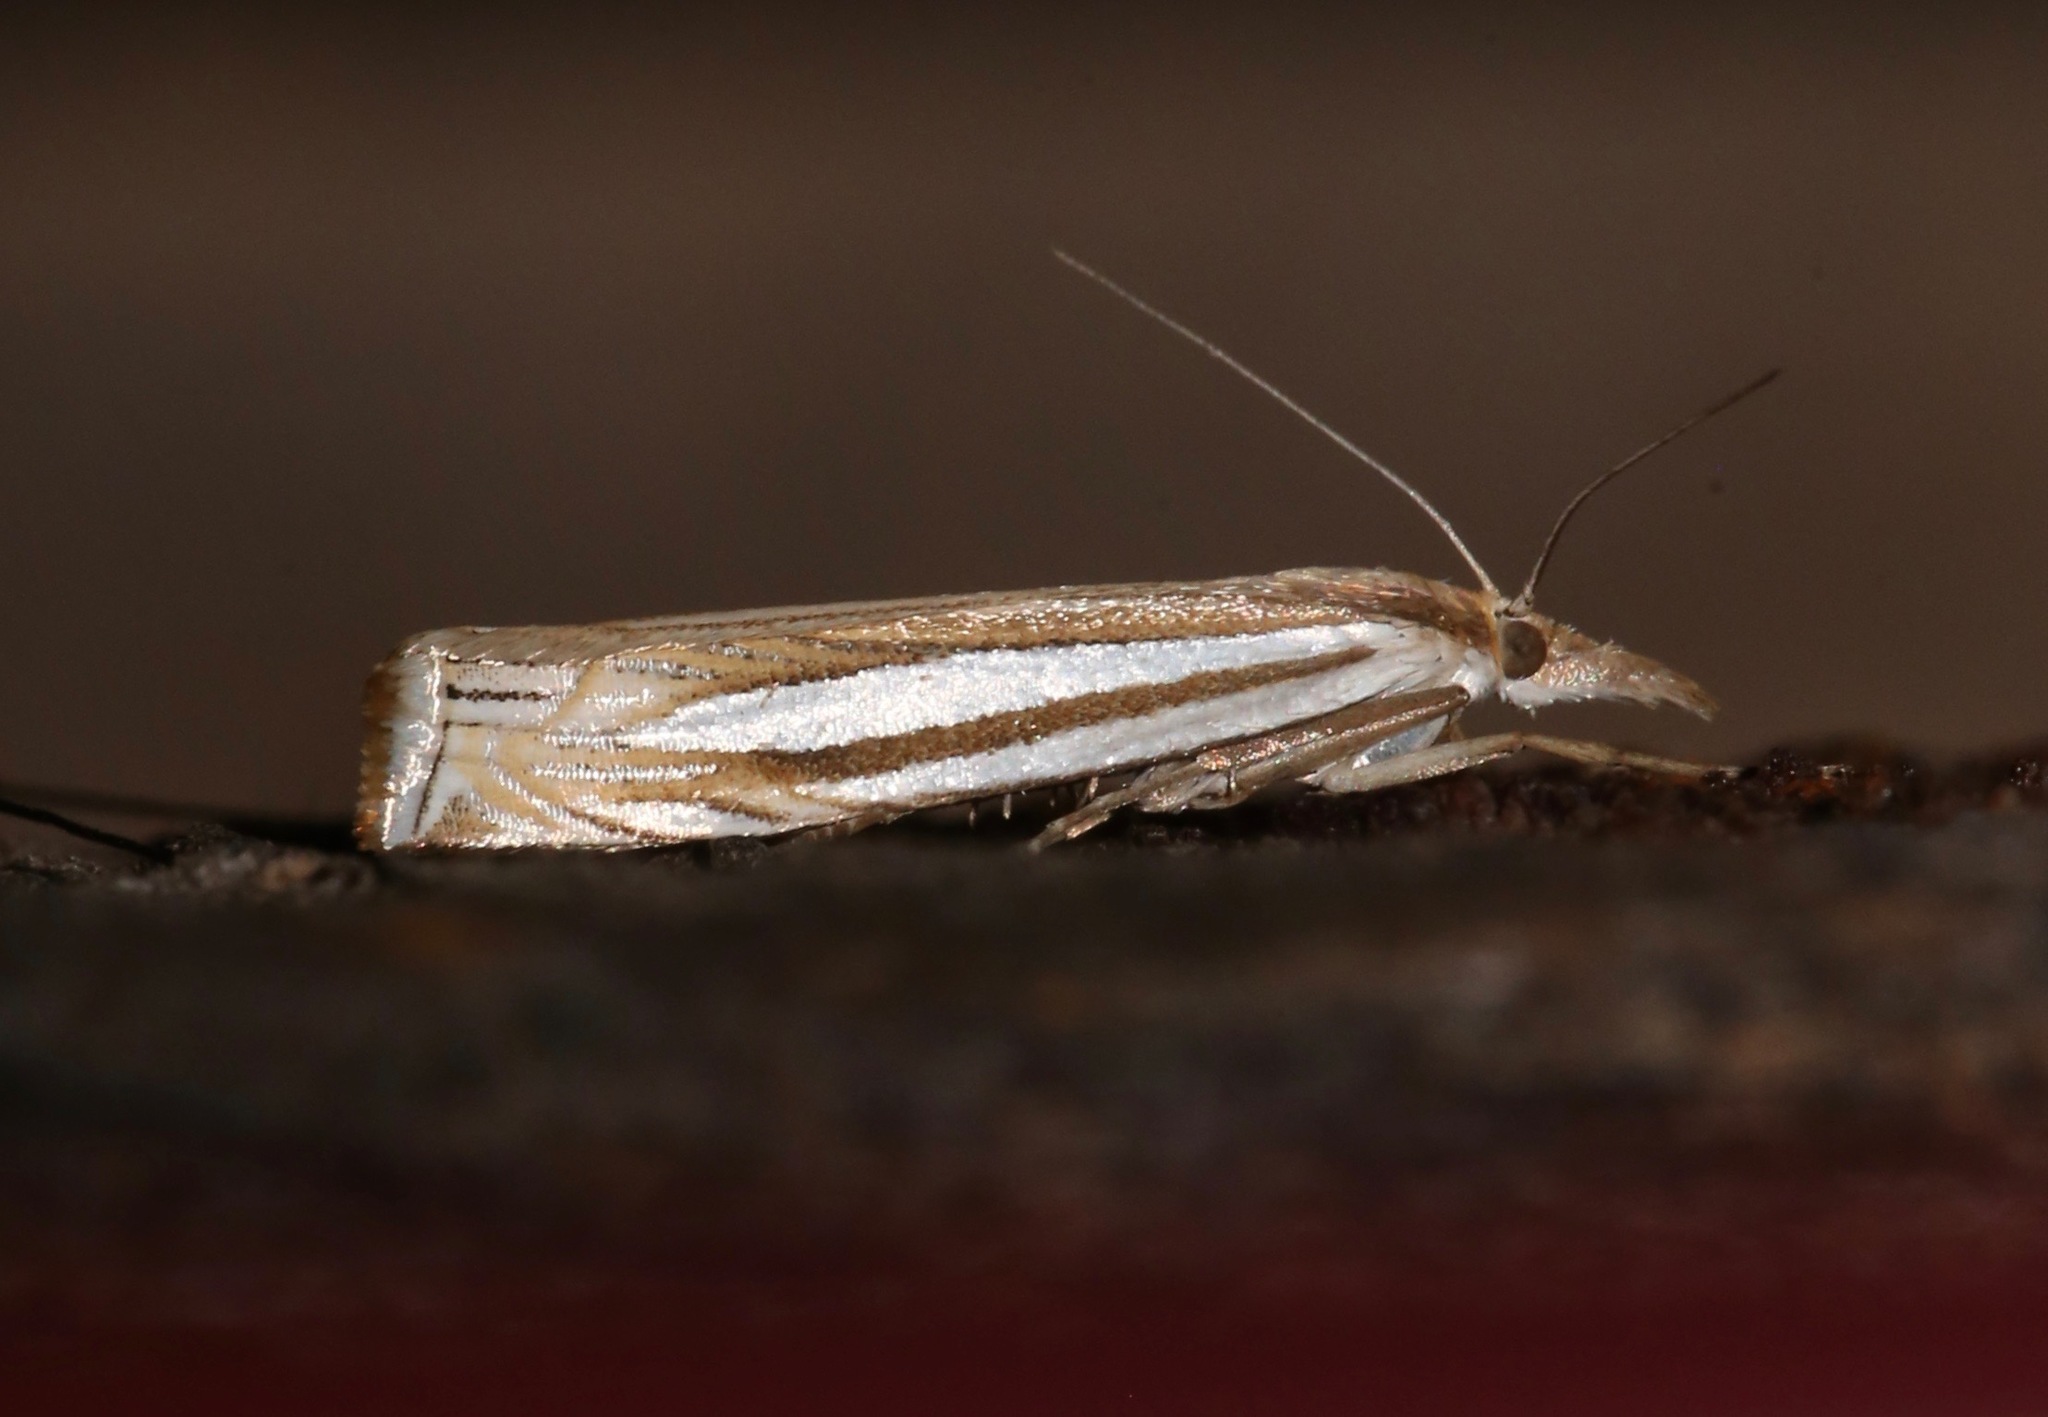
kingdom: Animalia
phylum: Arthropoda
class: Insecta
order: Lepidoptera
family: Crambidae
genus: Crambus
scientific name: Crambus laqueatellus
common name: Eastern grass-veneer
